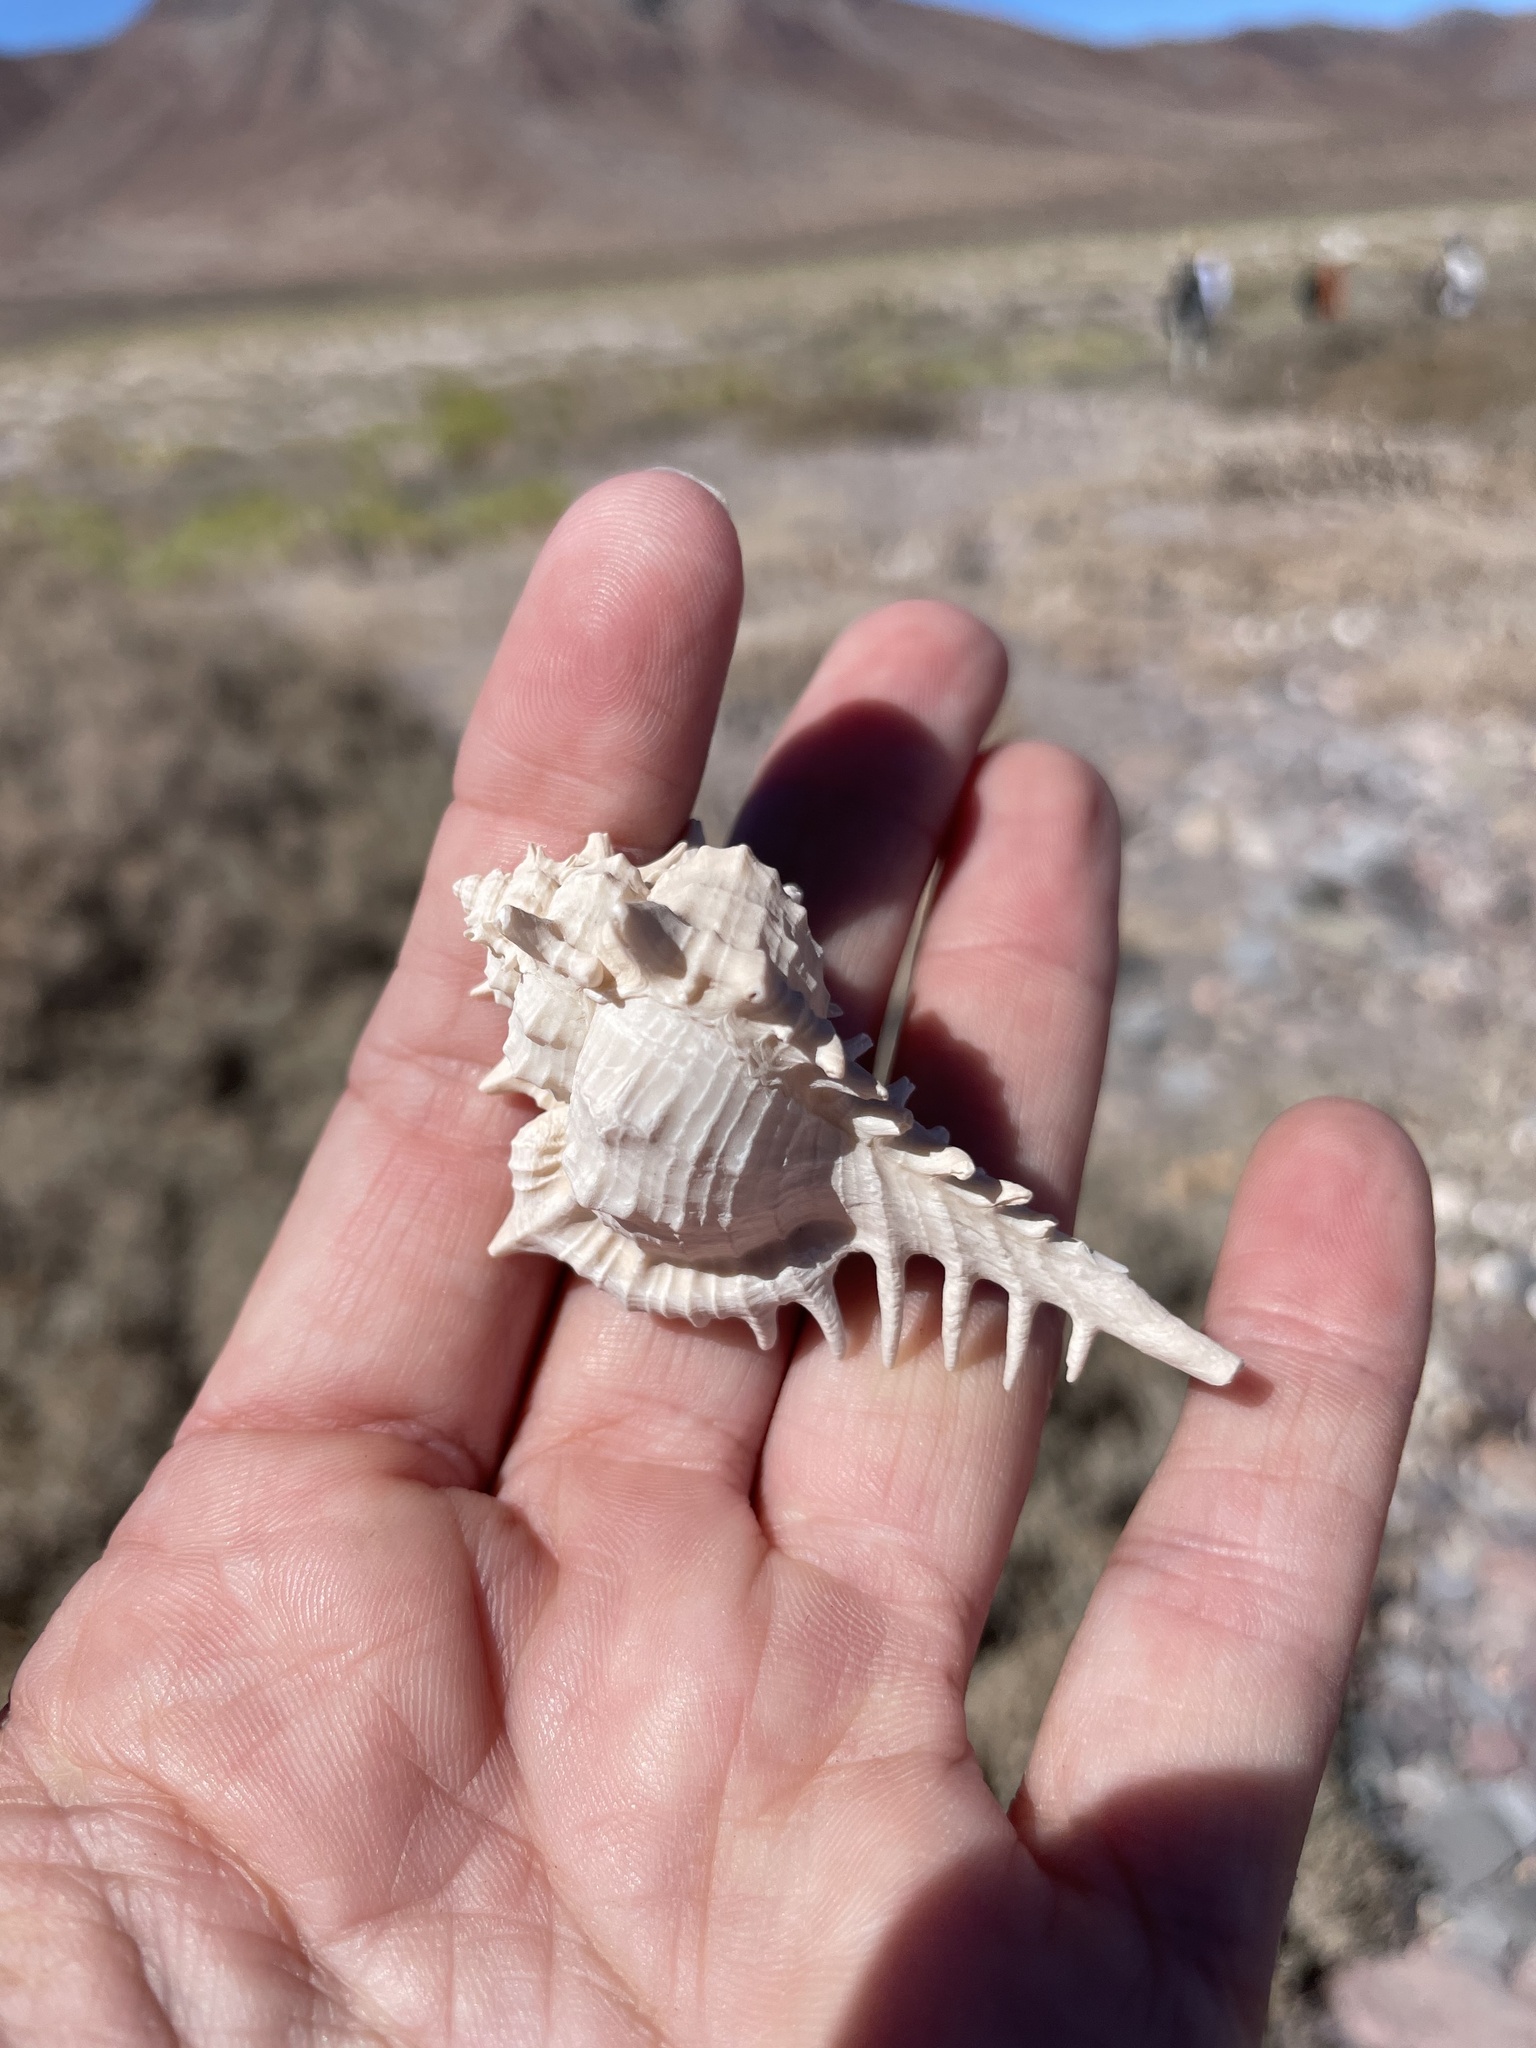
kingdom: Animalia
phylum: Mollusca
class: Gastropoda
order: Neogastropoda
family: Muricidae
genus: Vokesimurex
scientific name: Vokesimurex ruthae
